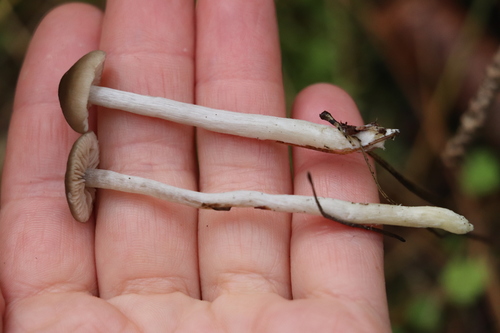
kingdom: Fungi
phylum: Basidiomycota
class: Agaricomycetes
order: Agaricales
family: Entolomataceae
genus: Entoloma
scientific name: Entoloma
